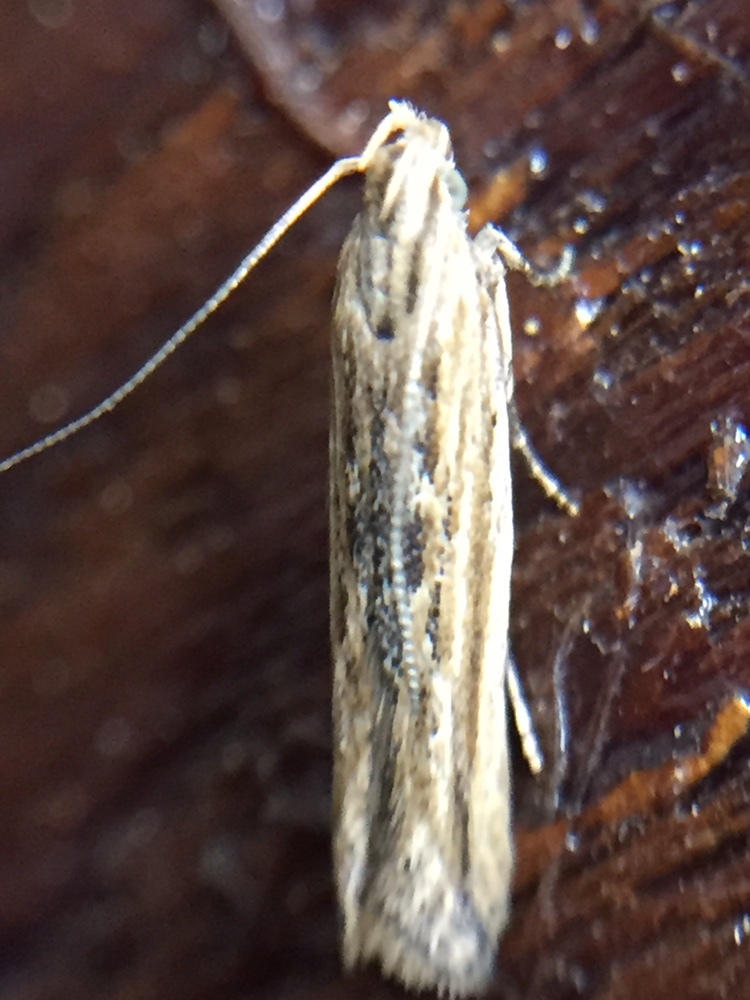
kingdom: Animalia
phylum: Arthropoda
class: Insecta
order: Lepidoptera
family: Gelechiidae
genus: Symmetrischema
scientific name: Symmetrischema striatella
